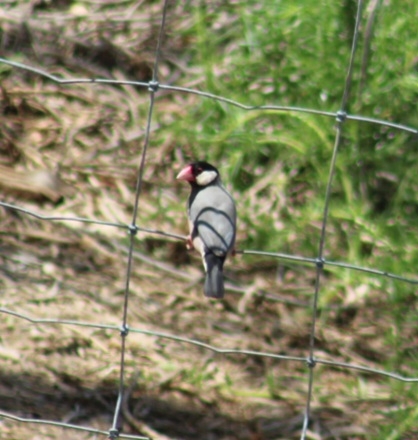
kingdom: Animalia
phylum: Chordata
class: Aves
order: Passeriformes
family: Estrildidae
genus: Lonchura
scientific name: Lonchura oryzivora
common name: Java sparrow
